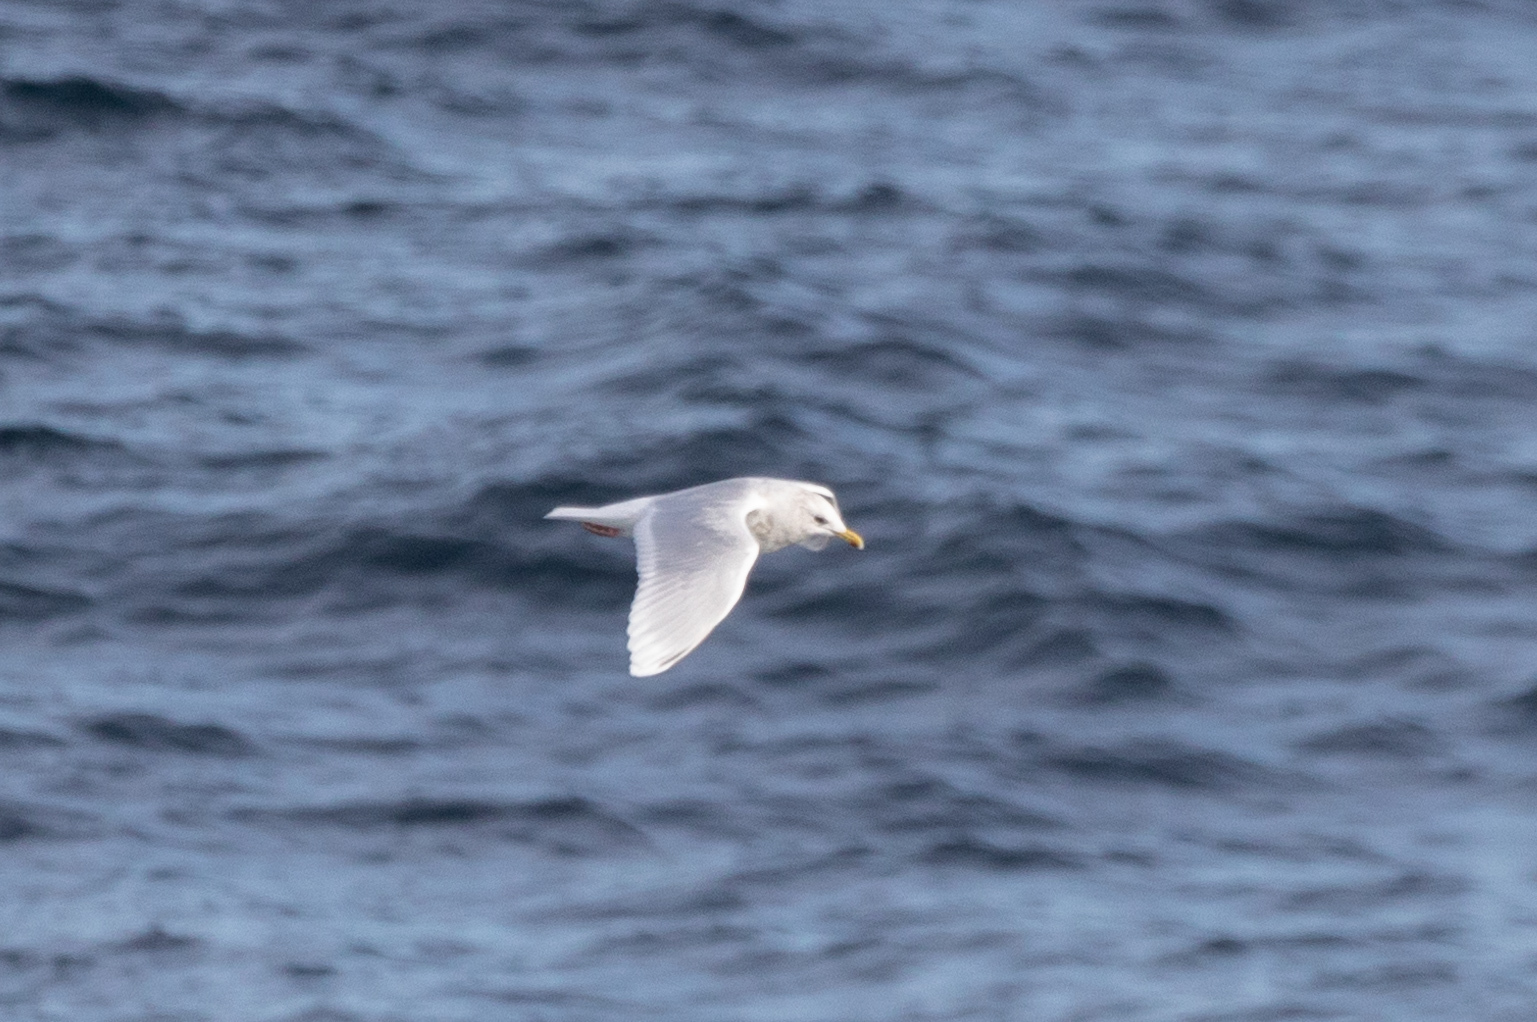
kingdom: Animalia
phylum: Chordata
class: Aves
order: Charadriiformes
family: Laridae
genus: Larus
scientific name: Larus glaucoides
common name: Iceland gull
